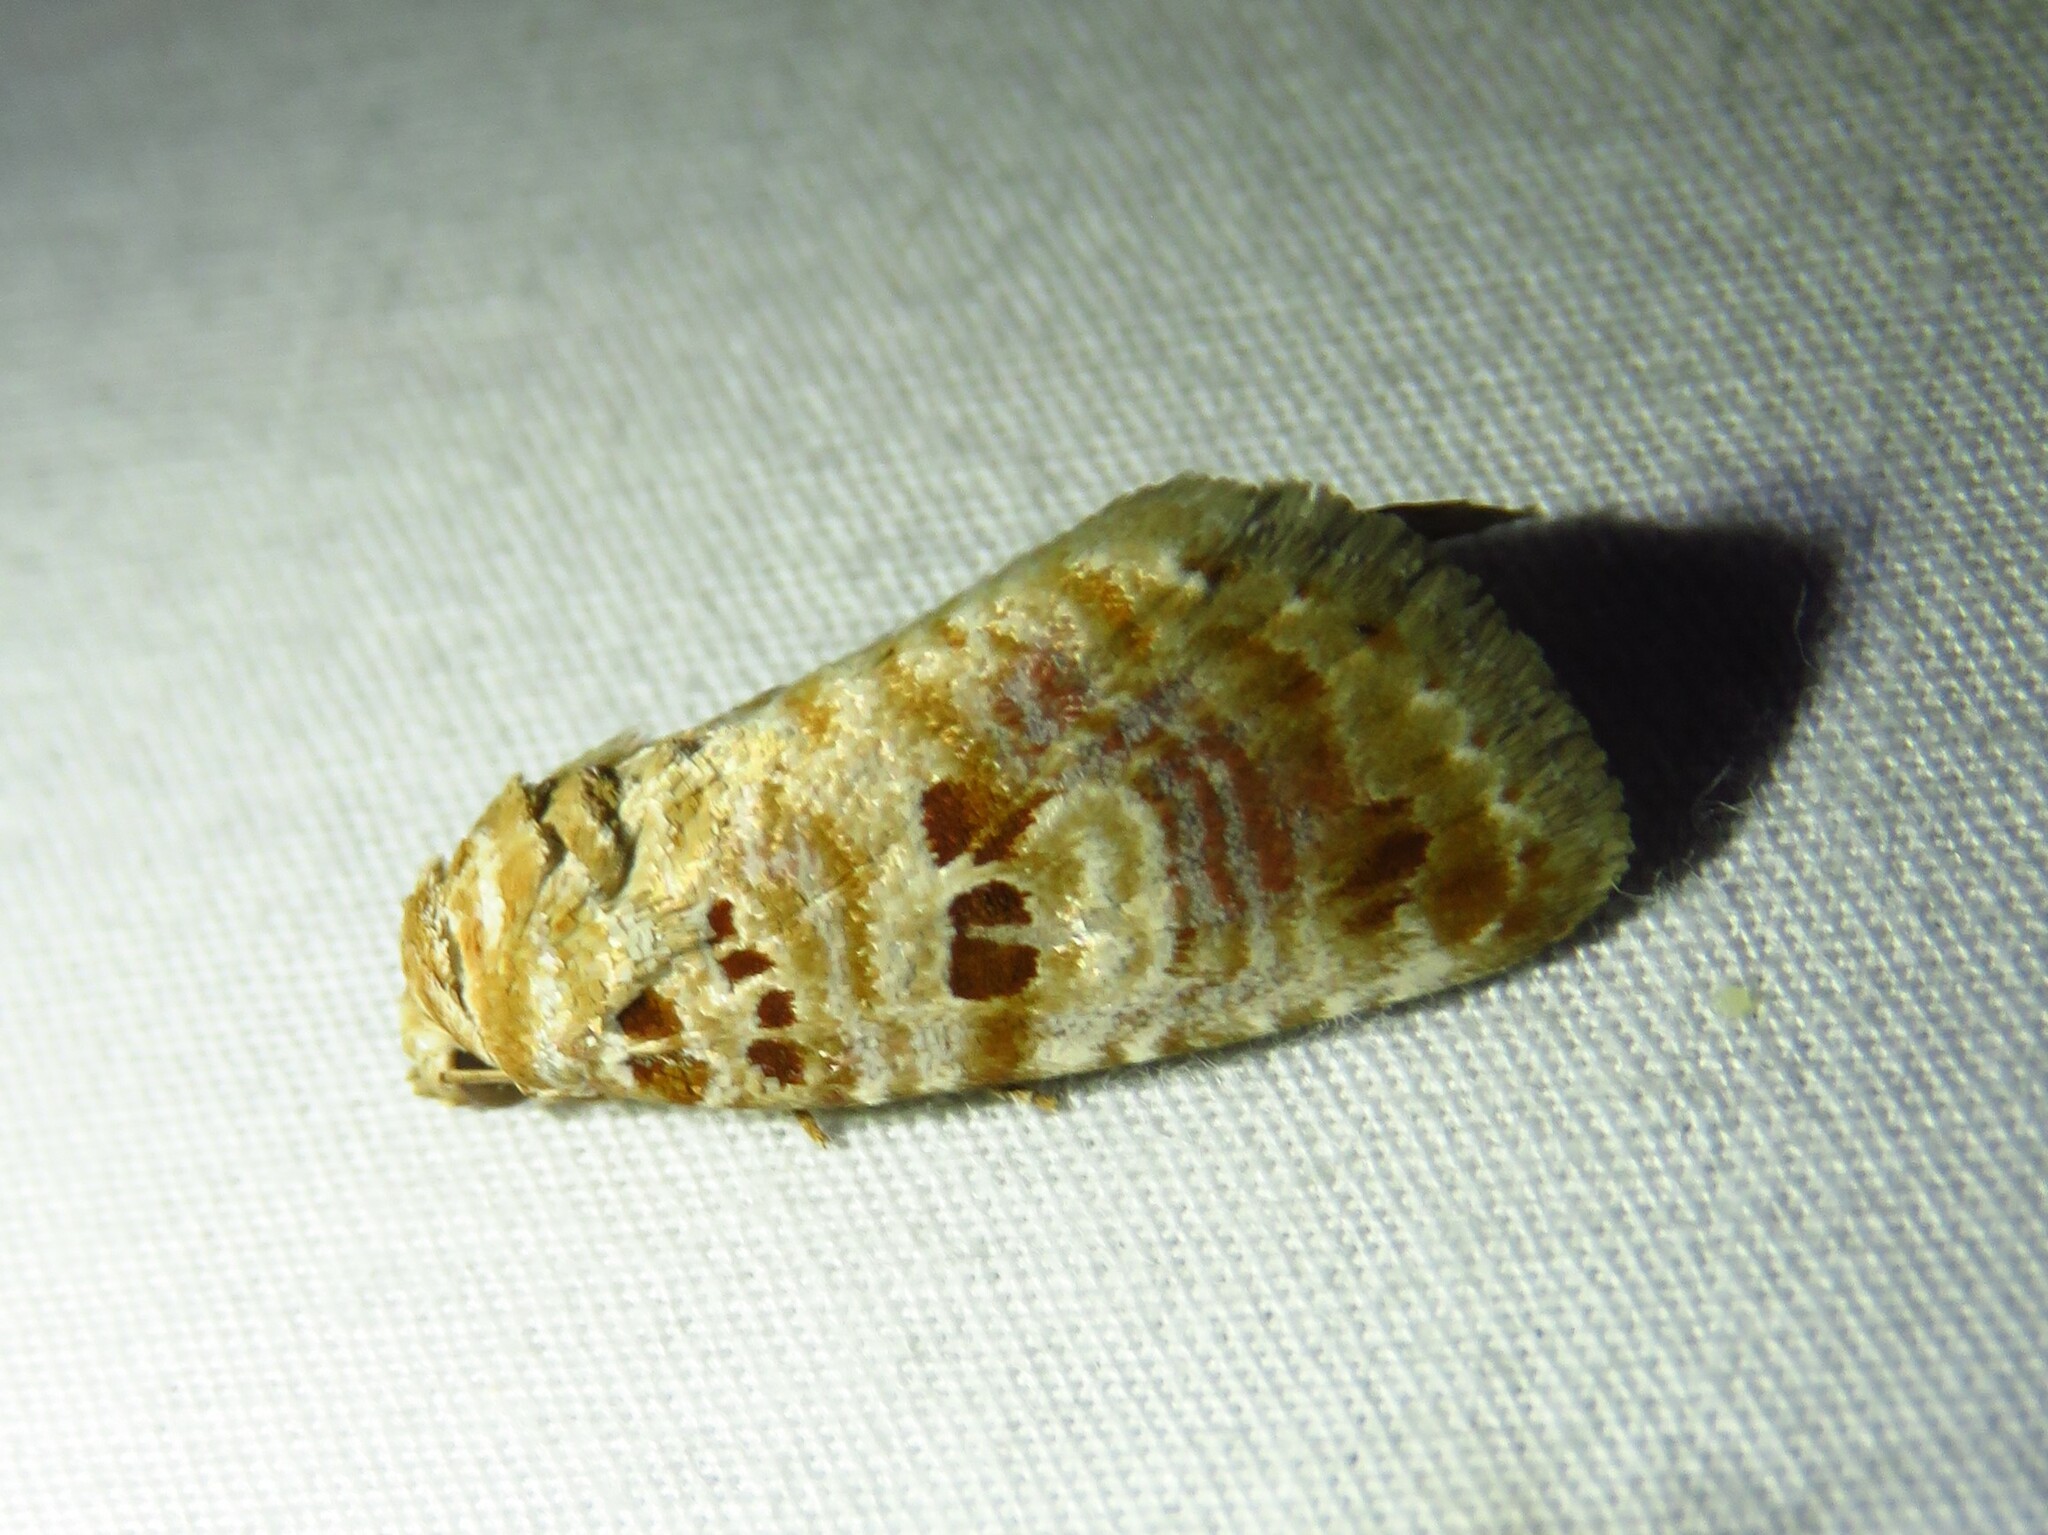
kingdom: Animalia
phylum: Arthropoda
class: Insecta
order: Lepidoptera
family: Noctuidae
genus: Diastema
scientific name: Diastema tigris
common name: Lantana moth
